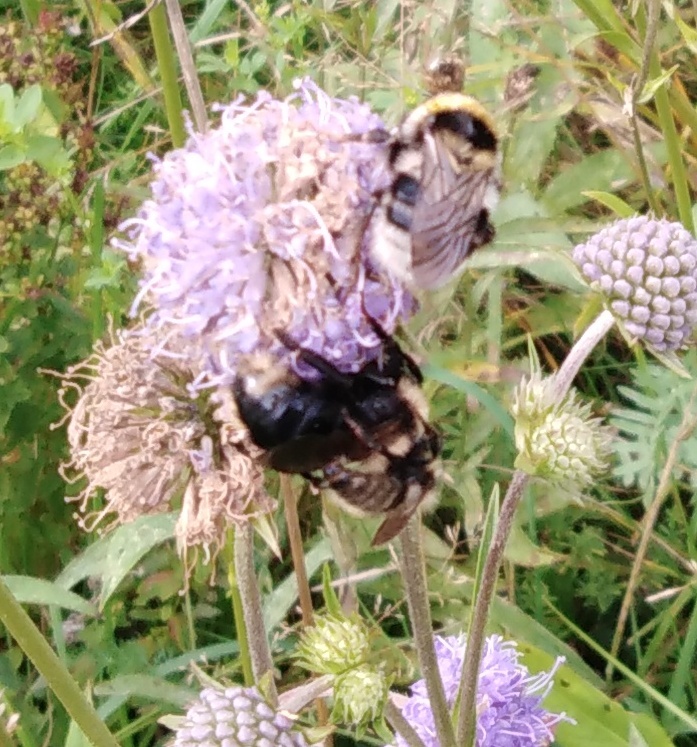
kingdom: Animalia
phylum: Arthropoda
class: Insecta
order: Hymenoptera
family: Apidae
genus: Bombus
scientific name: Bombus campestris
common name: Field cuckoo-bee
